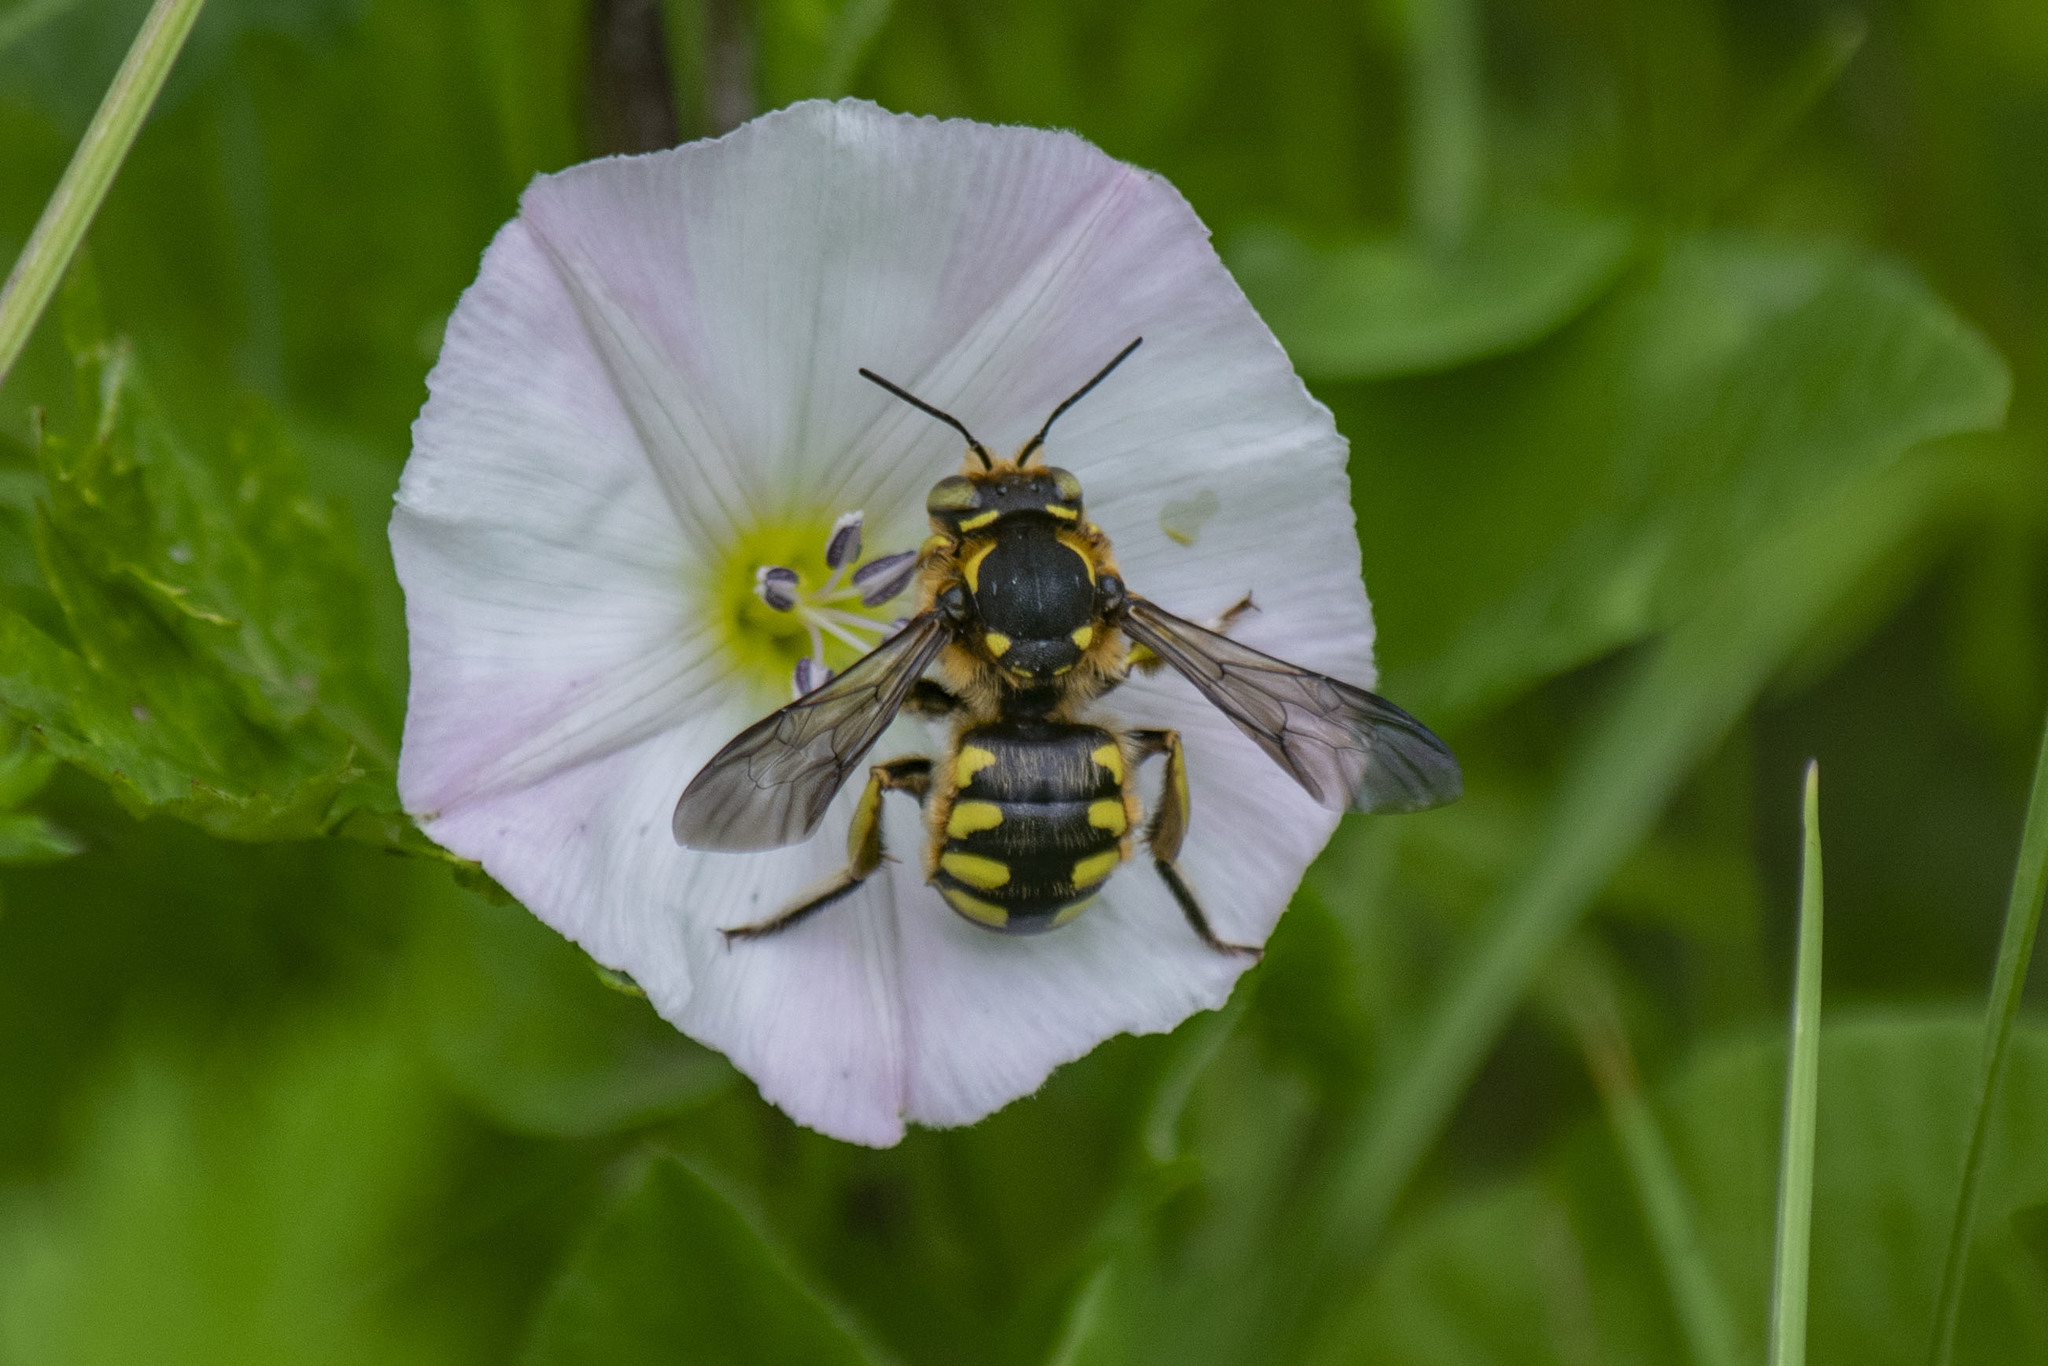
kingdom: Animalia
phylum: Arthropoda
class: Insecta
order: Hymenoptera
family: Megachilidae
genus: Anthidium
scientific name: Anthidium florentinum
